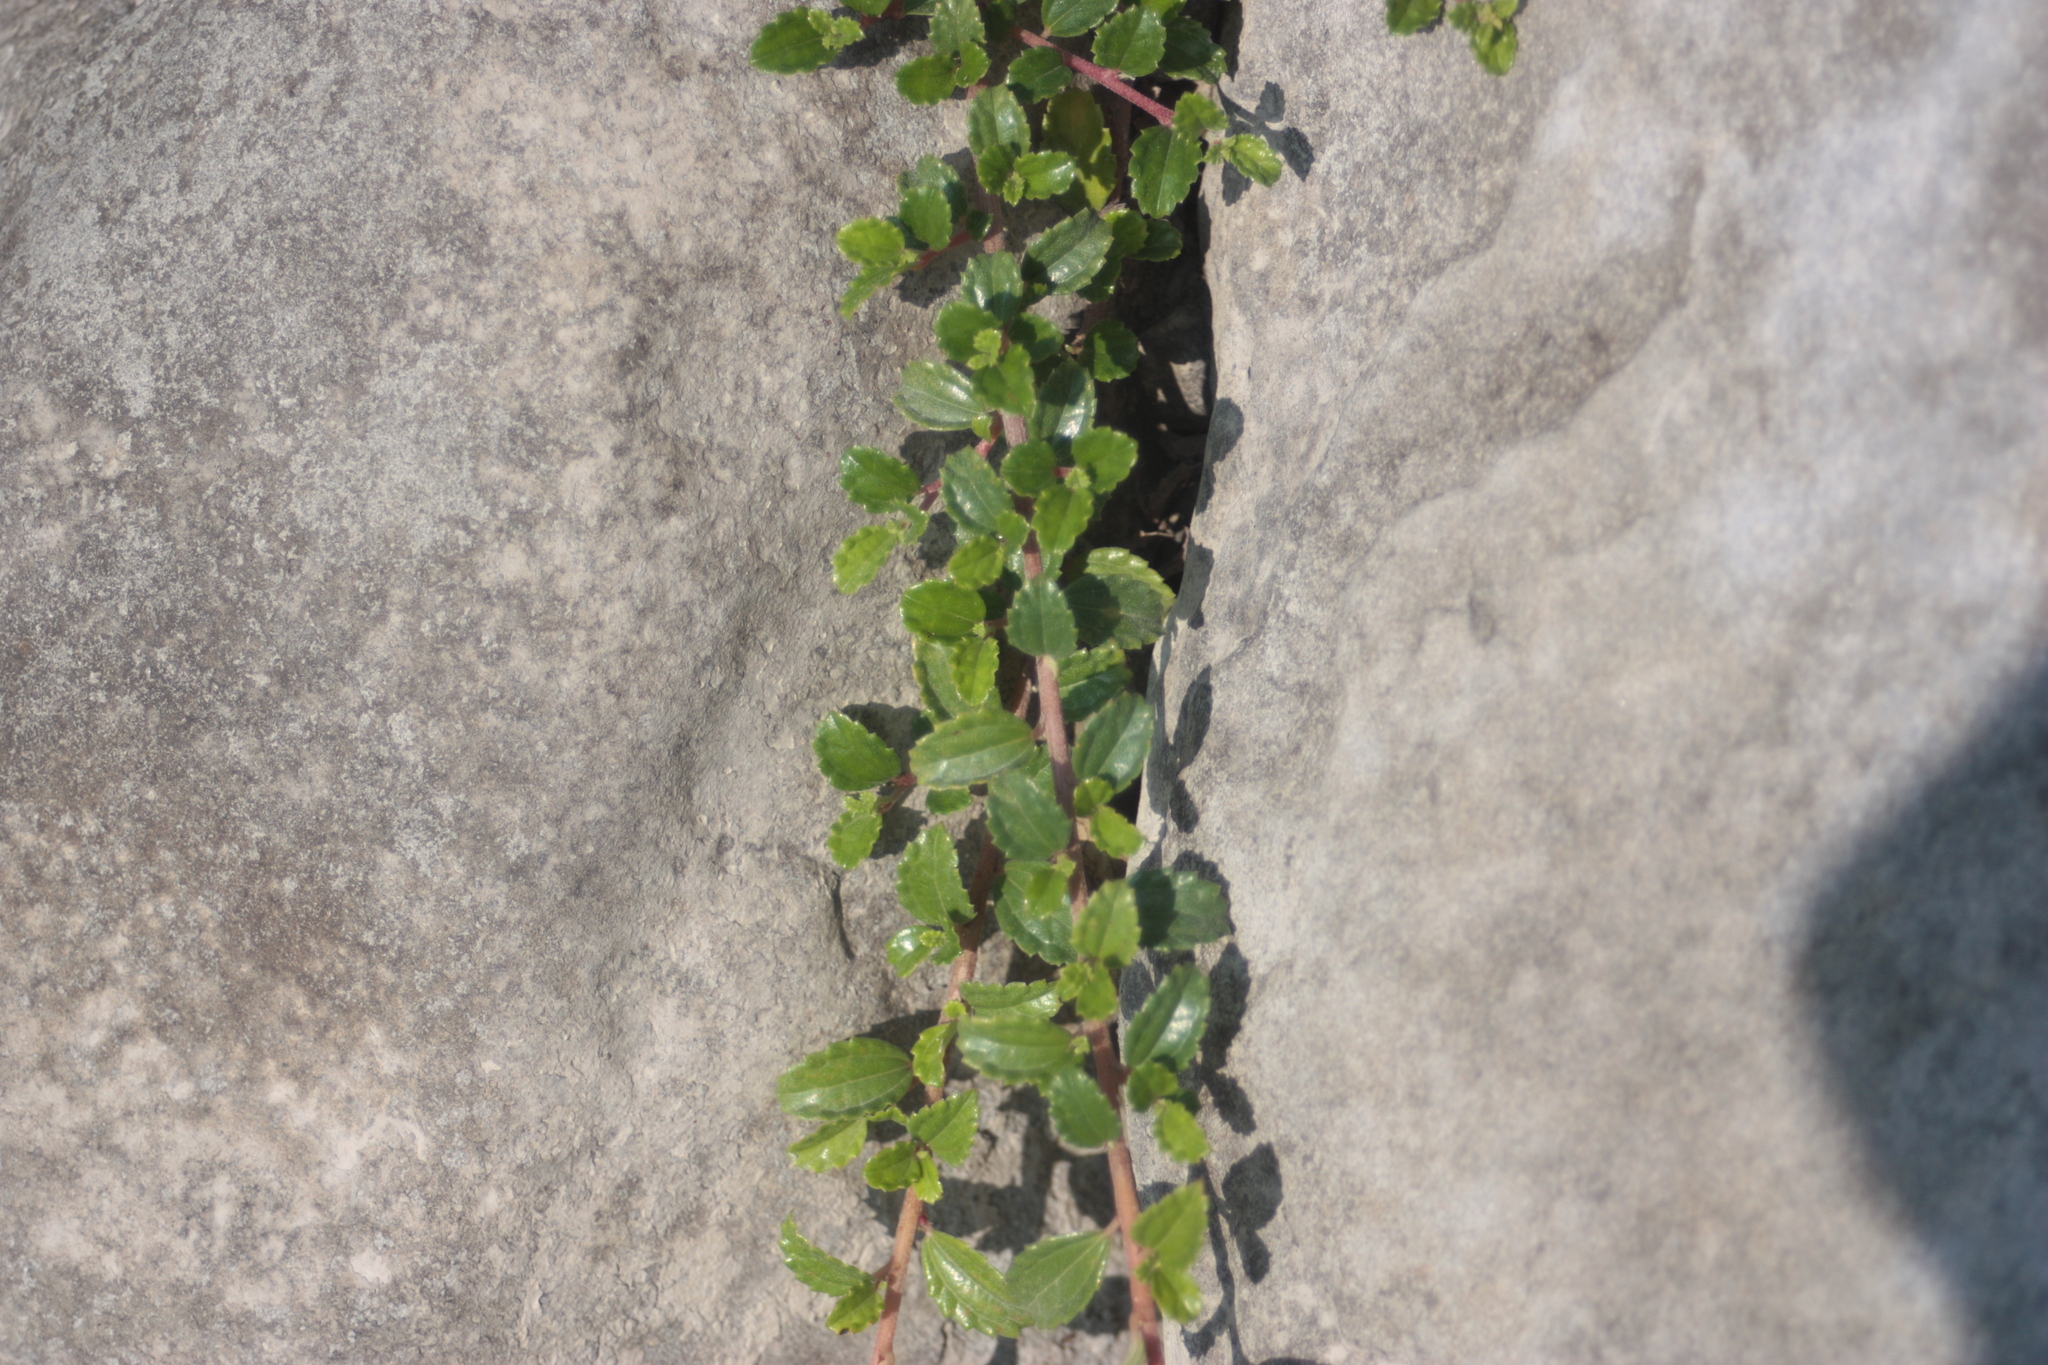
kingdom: Plantae
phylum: Tracheophyta
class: Magnoliopsida
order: Rosales
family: Urticaceae
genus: Pouzolzia
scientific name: Pouzolzia sanguinea
